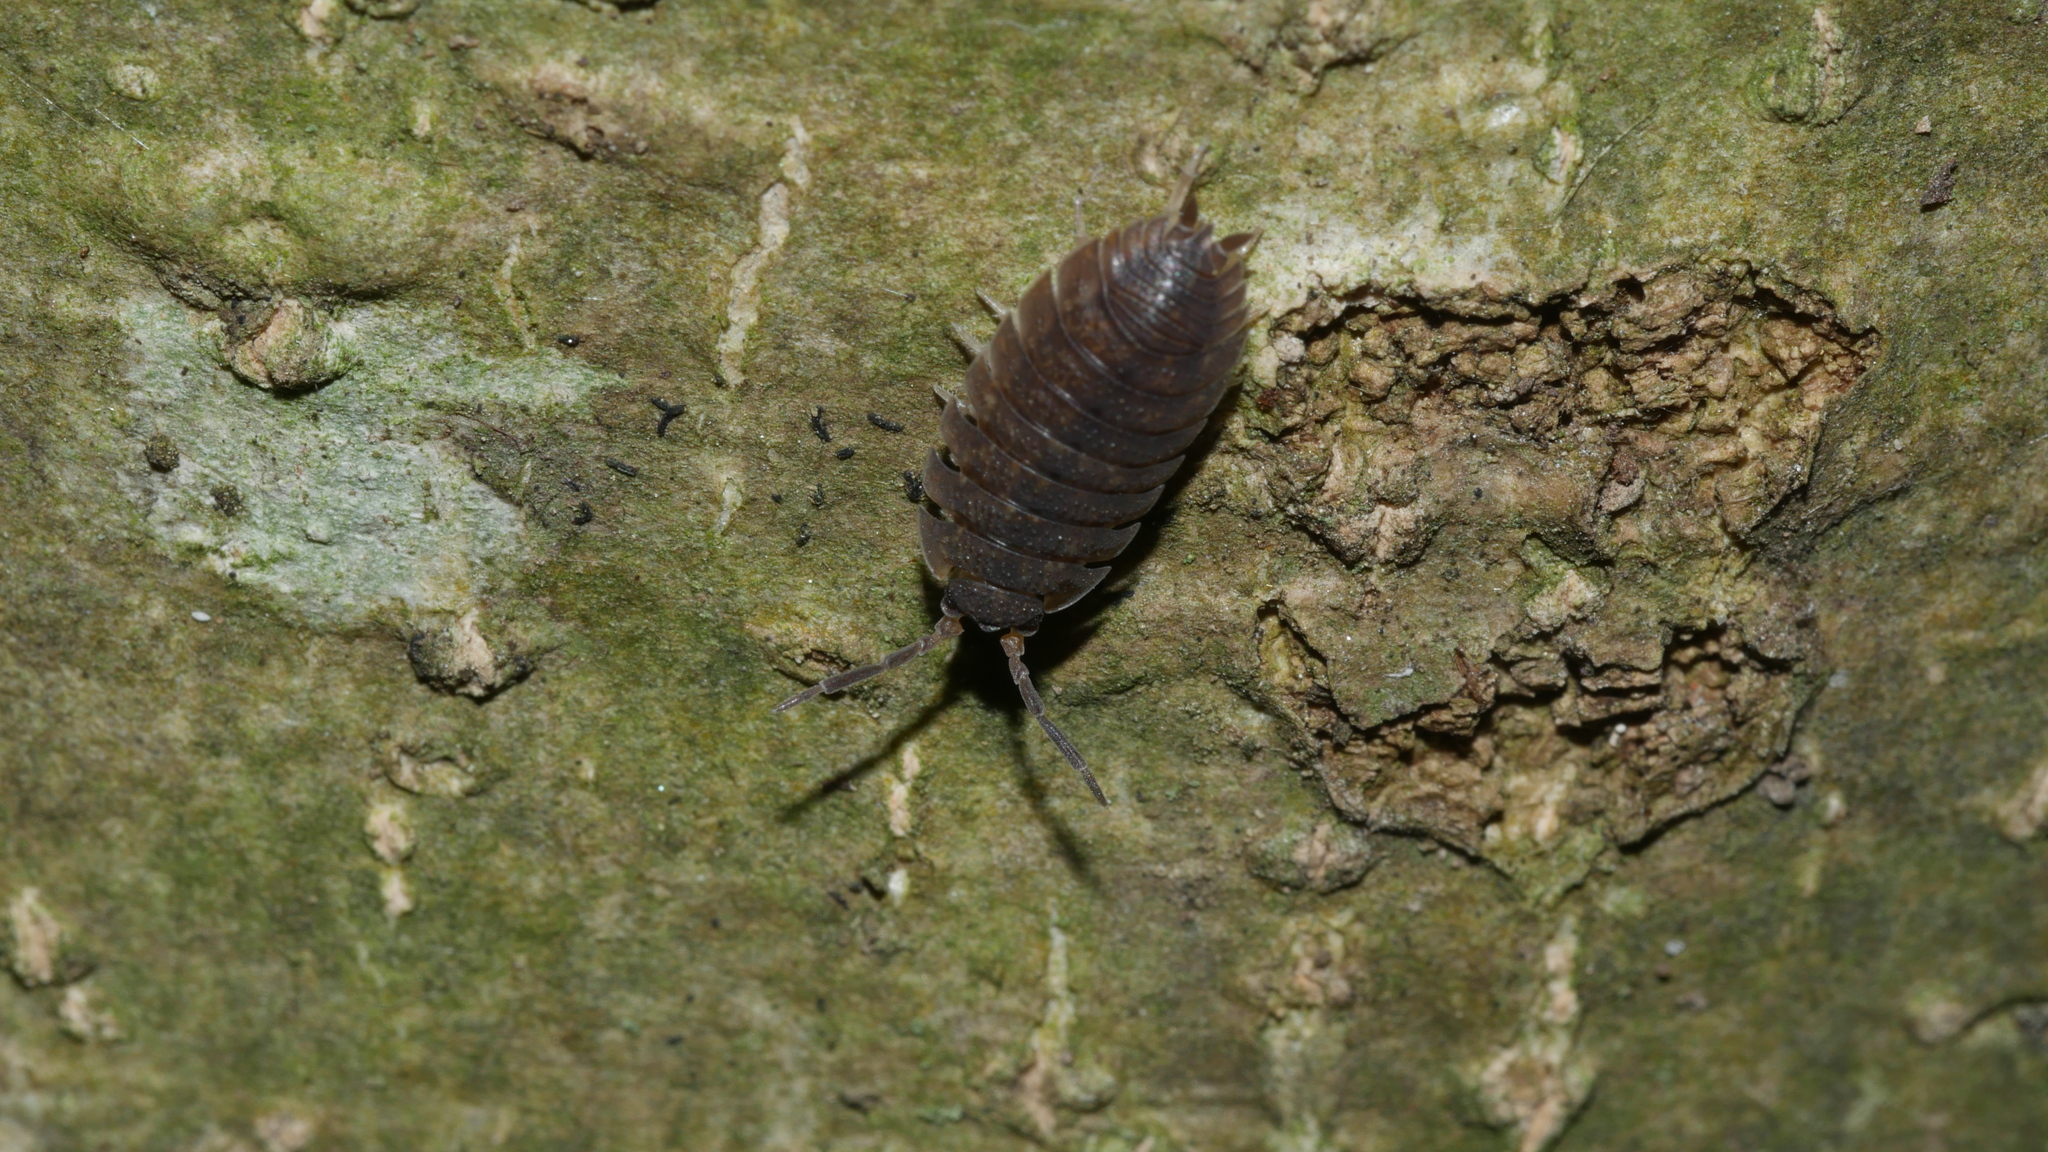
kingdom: Animalia
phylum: Arthropoda
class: Malacostraca
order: Isopoda
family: Porcellionidae
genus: Porcellio
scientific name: Porcellio scaber
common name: Common rough woodlouse
